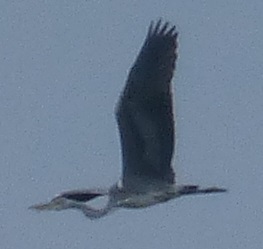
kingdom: Animalia
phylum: Chordata
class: Aves
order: Pelecaniformes
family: Ardeidae
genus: Ardea
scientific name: Ardea cinerea
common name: Grey heron
